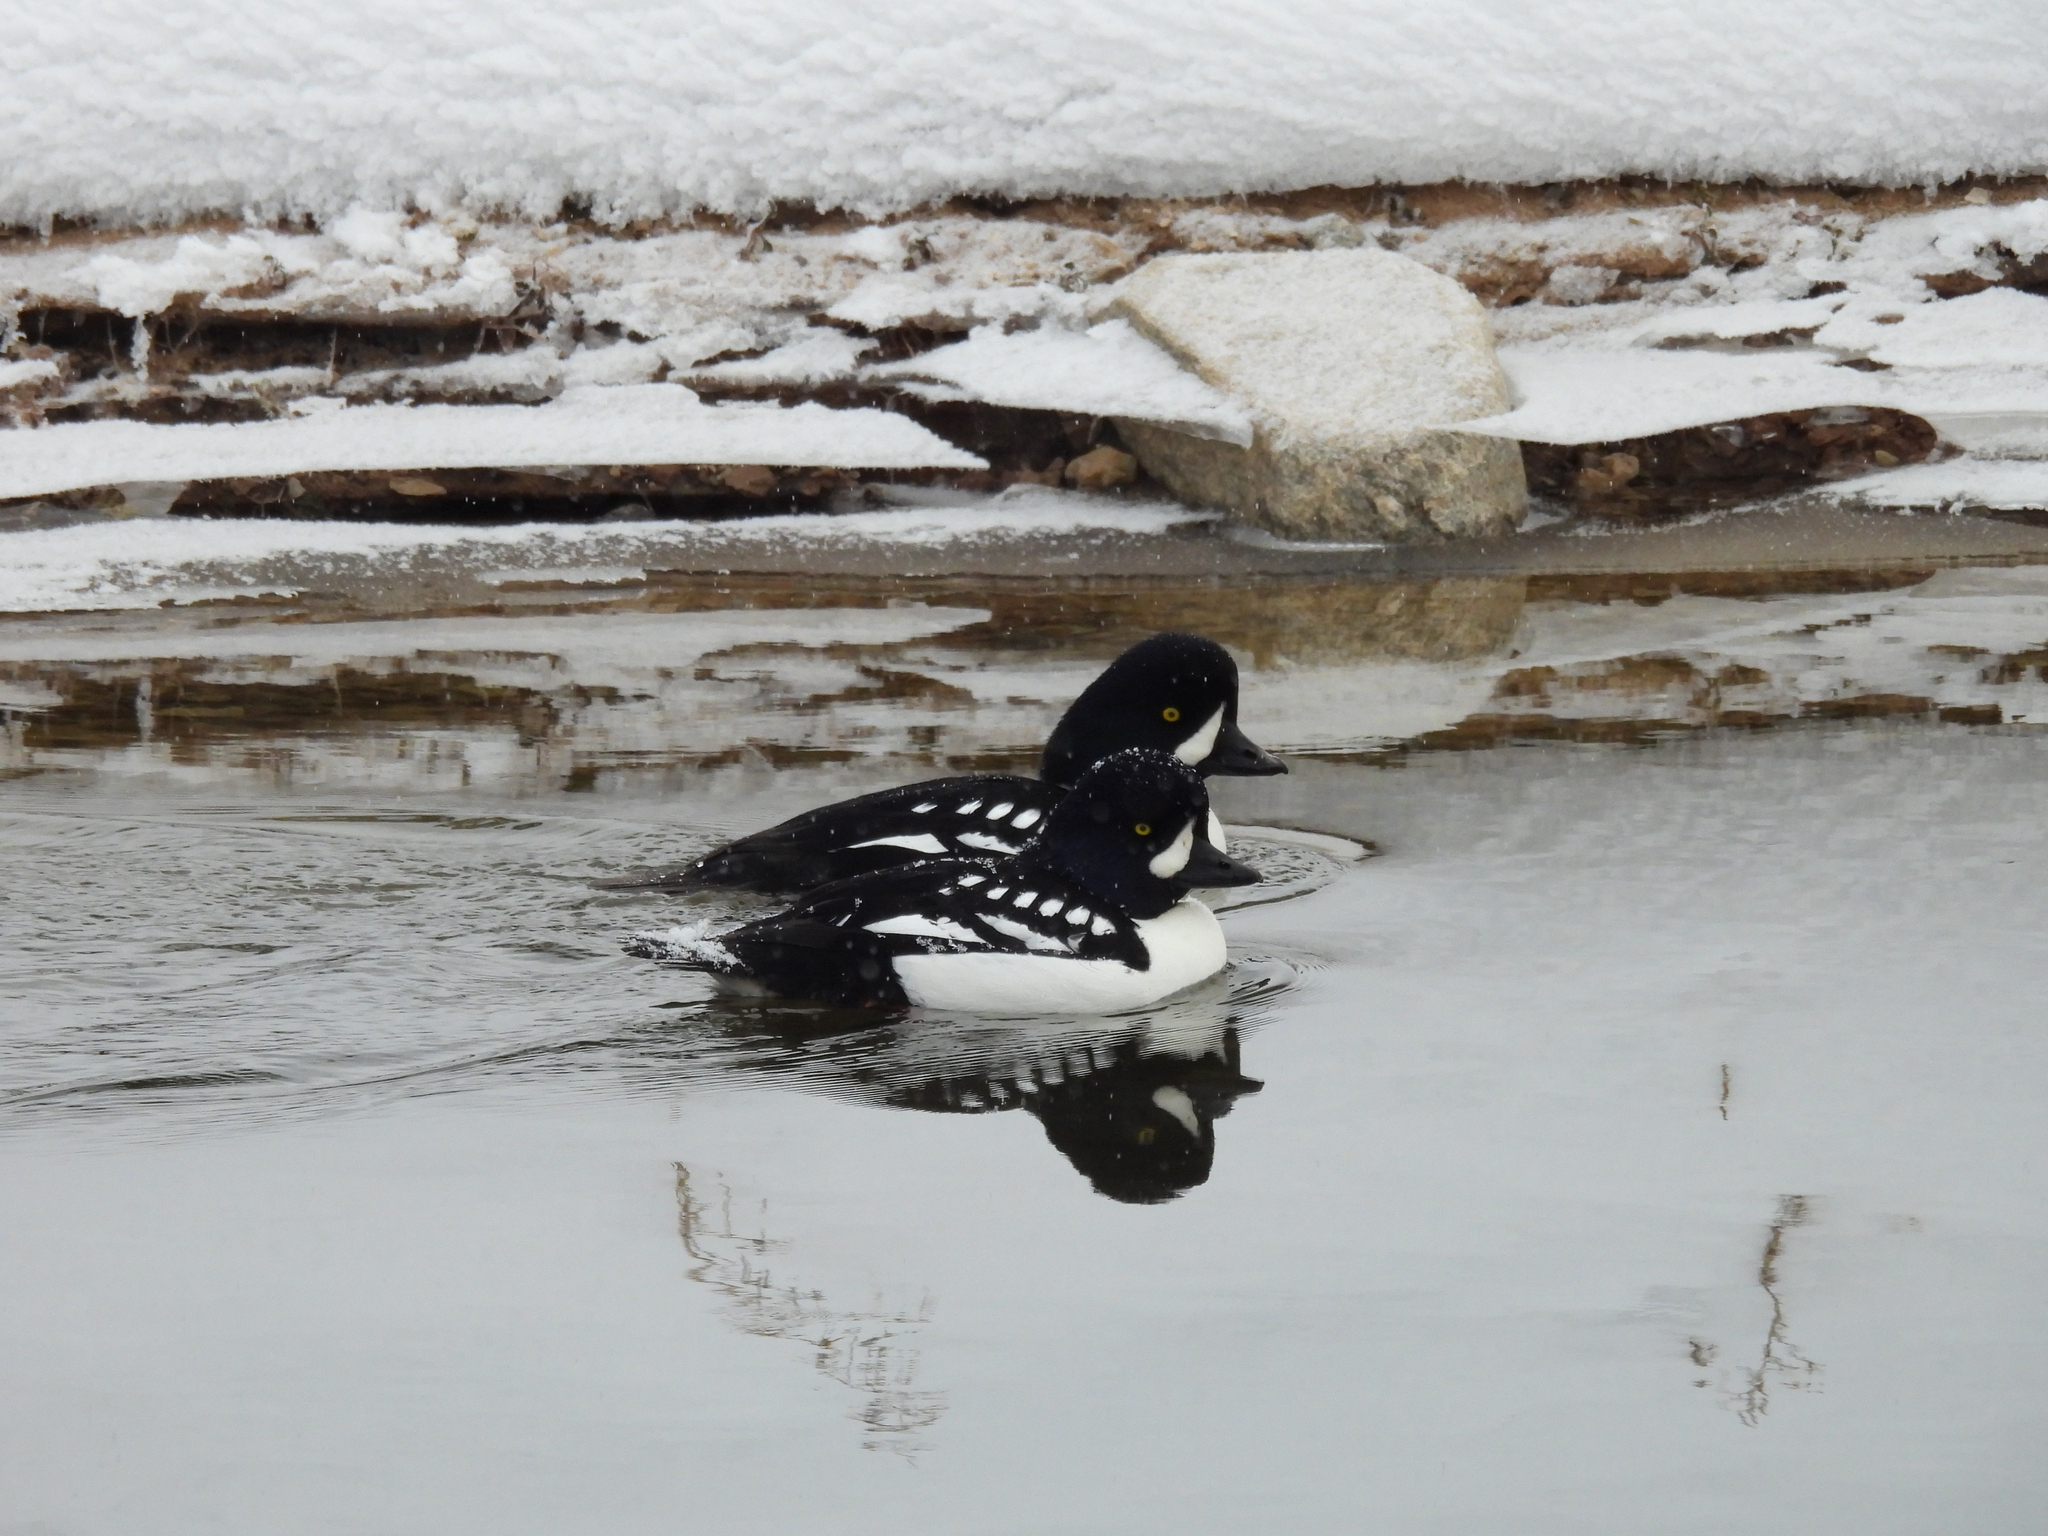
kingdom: Animalia
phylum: Chordata
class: Aves
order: Anseriformes
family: Anatidae
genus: Bucephala
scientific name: Bucephala islandica
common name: Barrow's goldeneye
